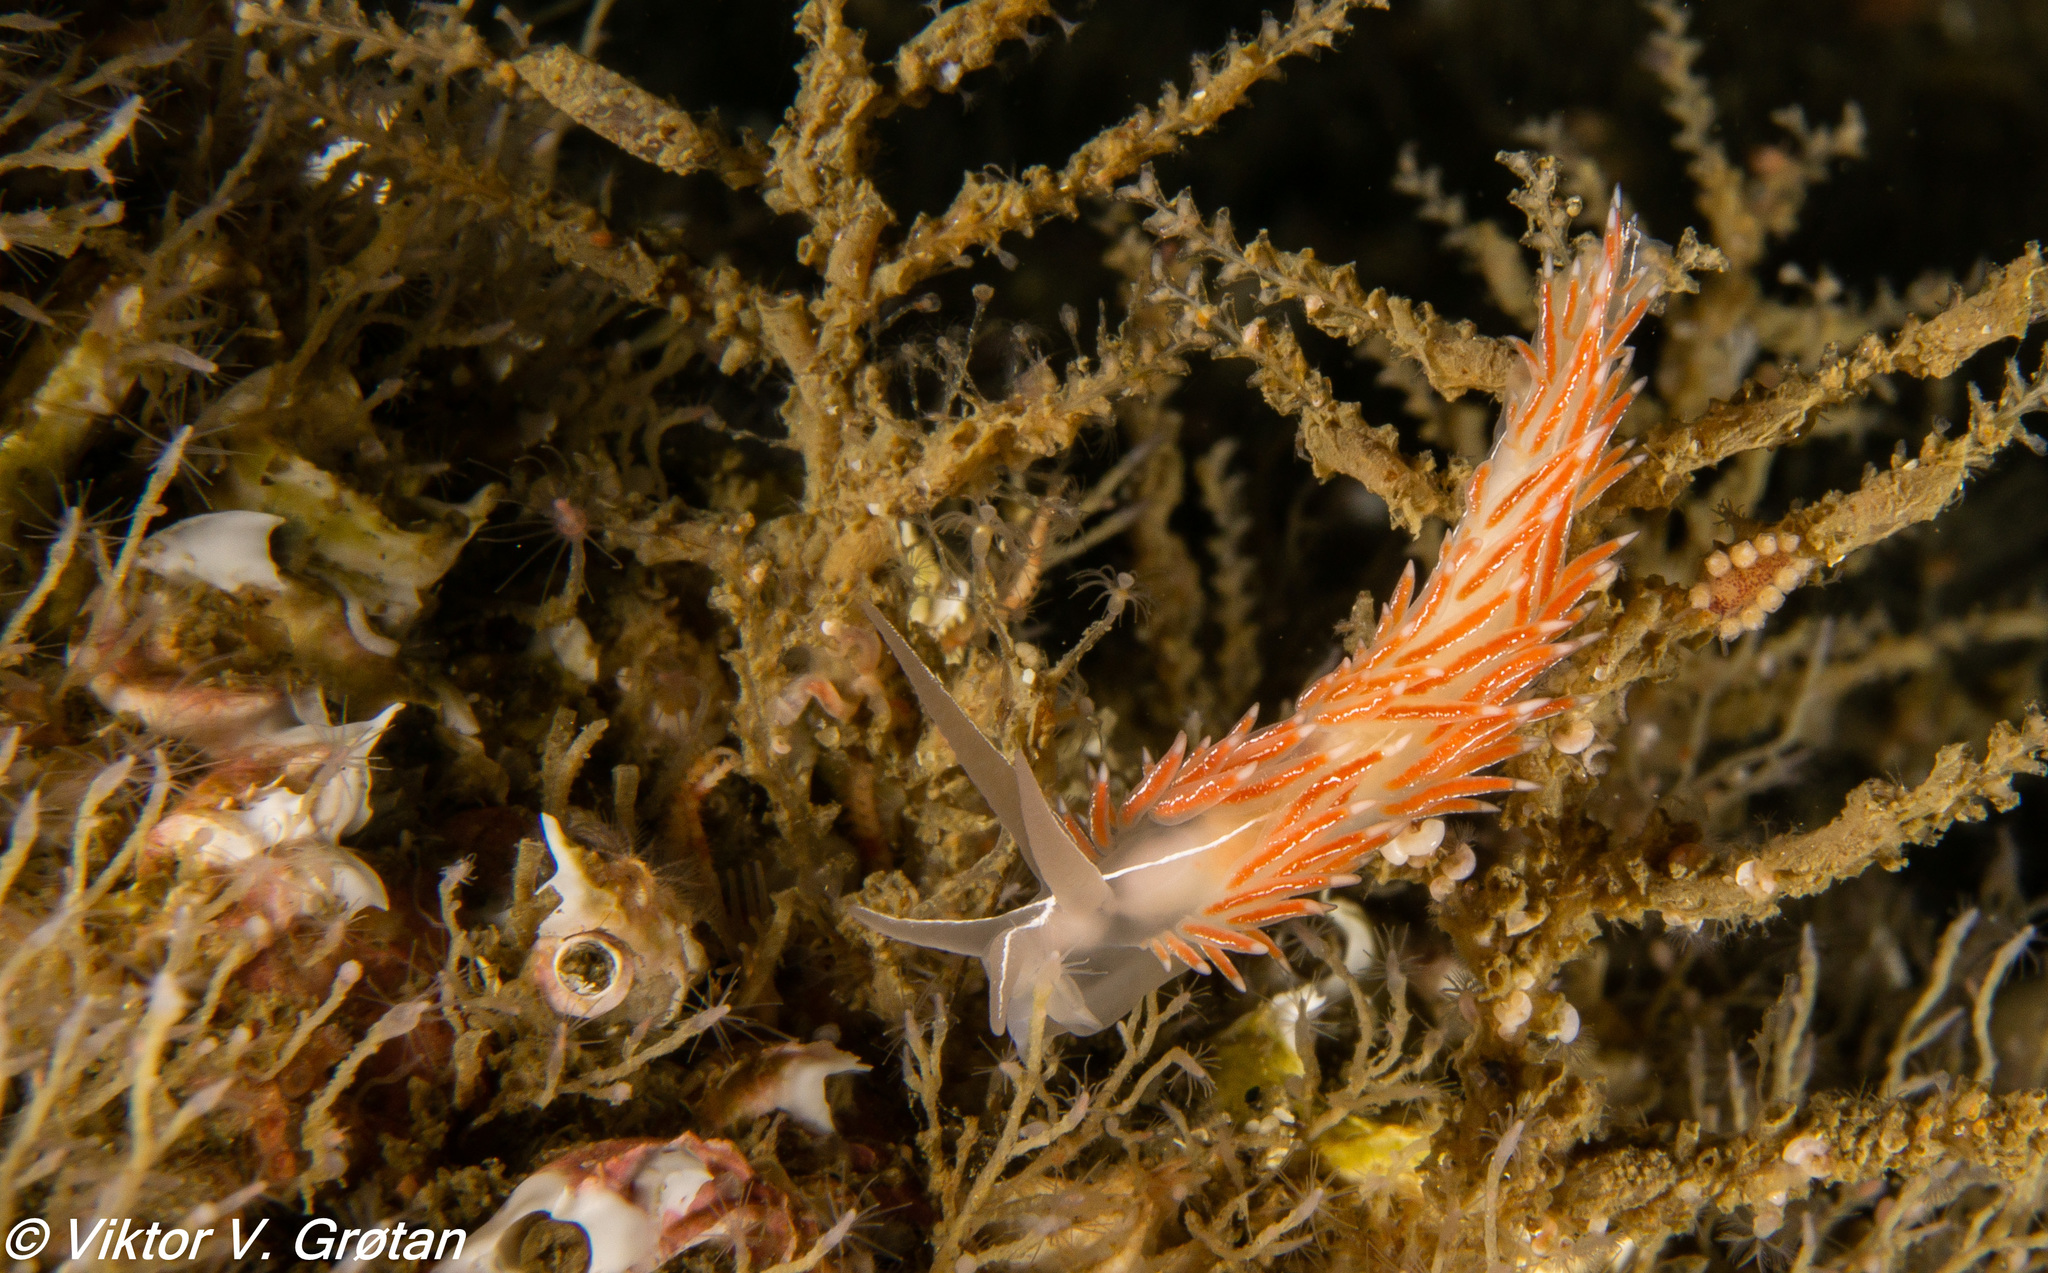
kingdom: Animalia
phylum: Mollusca
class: Gastropoda
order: Nudibranchia
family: Coryphellidae
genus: Coryphella
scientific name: Coryphella chriskaugei
